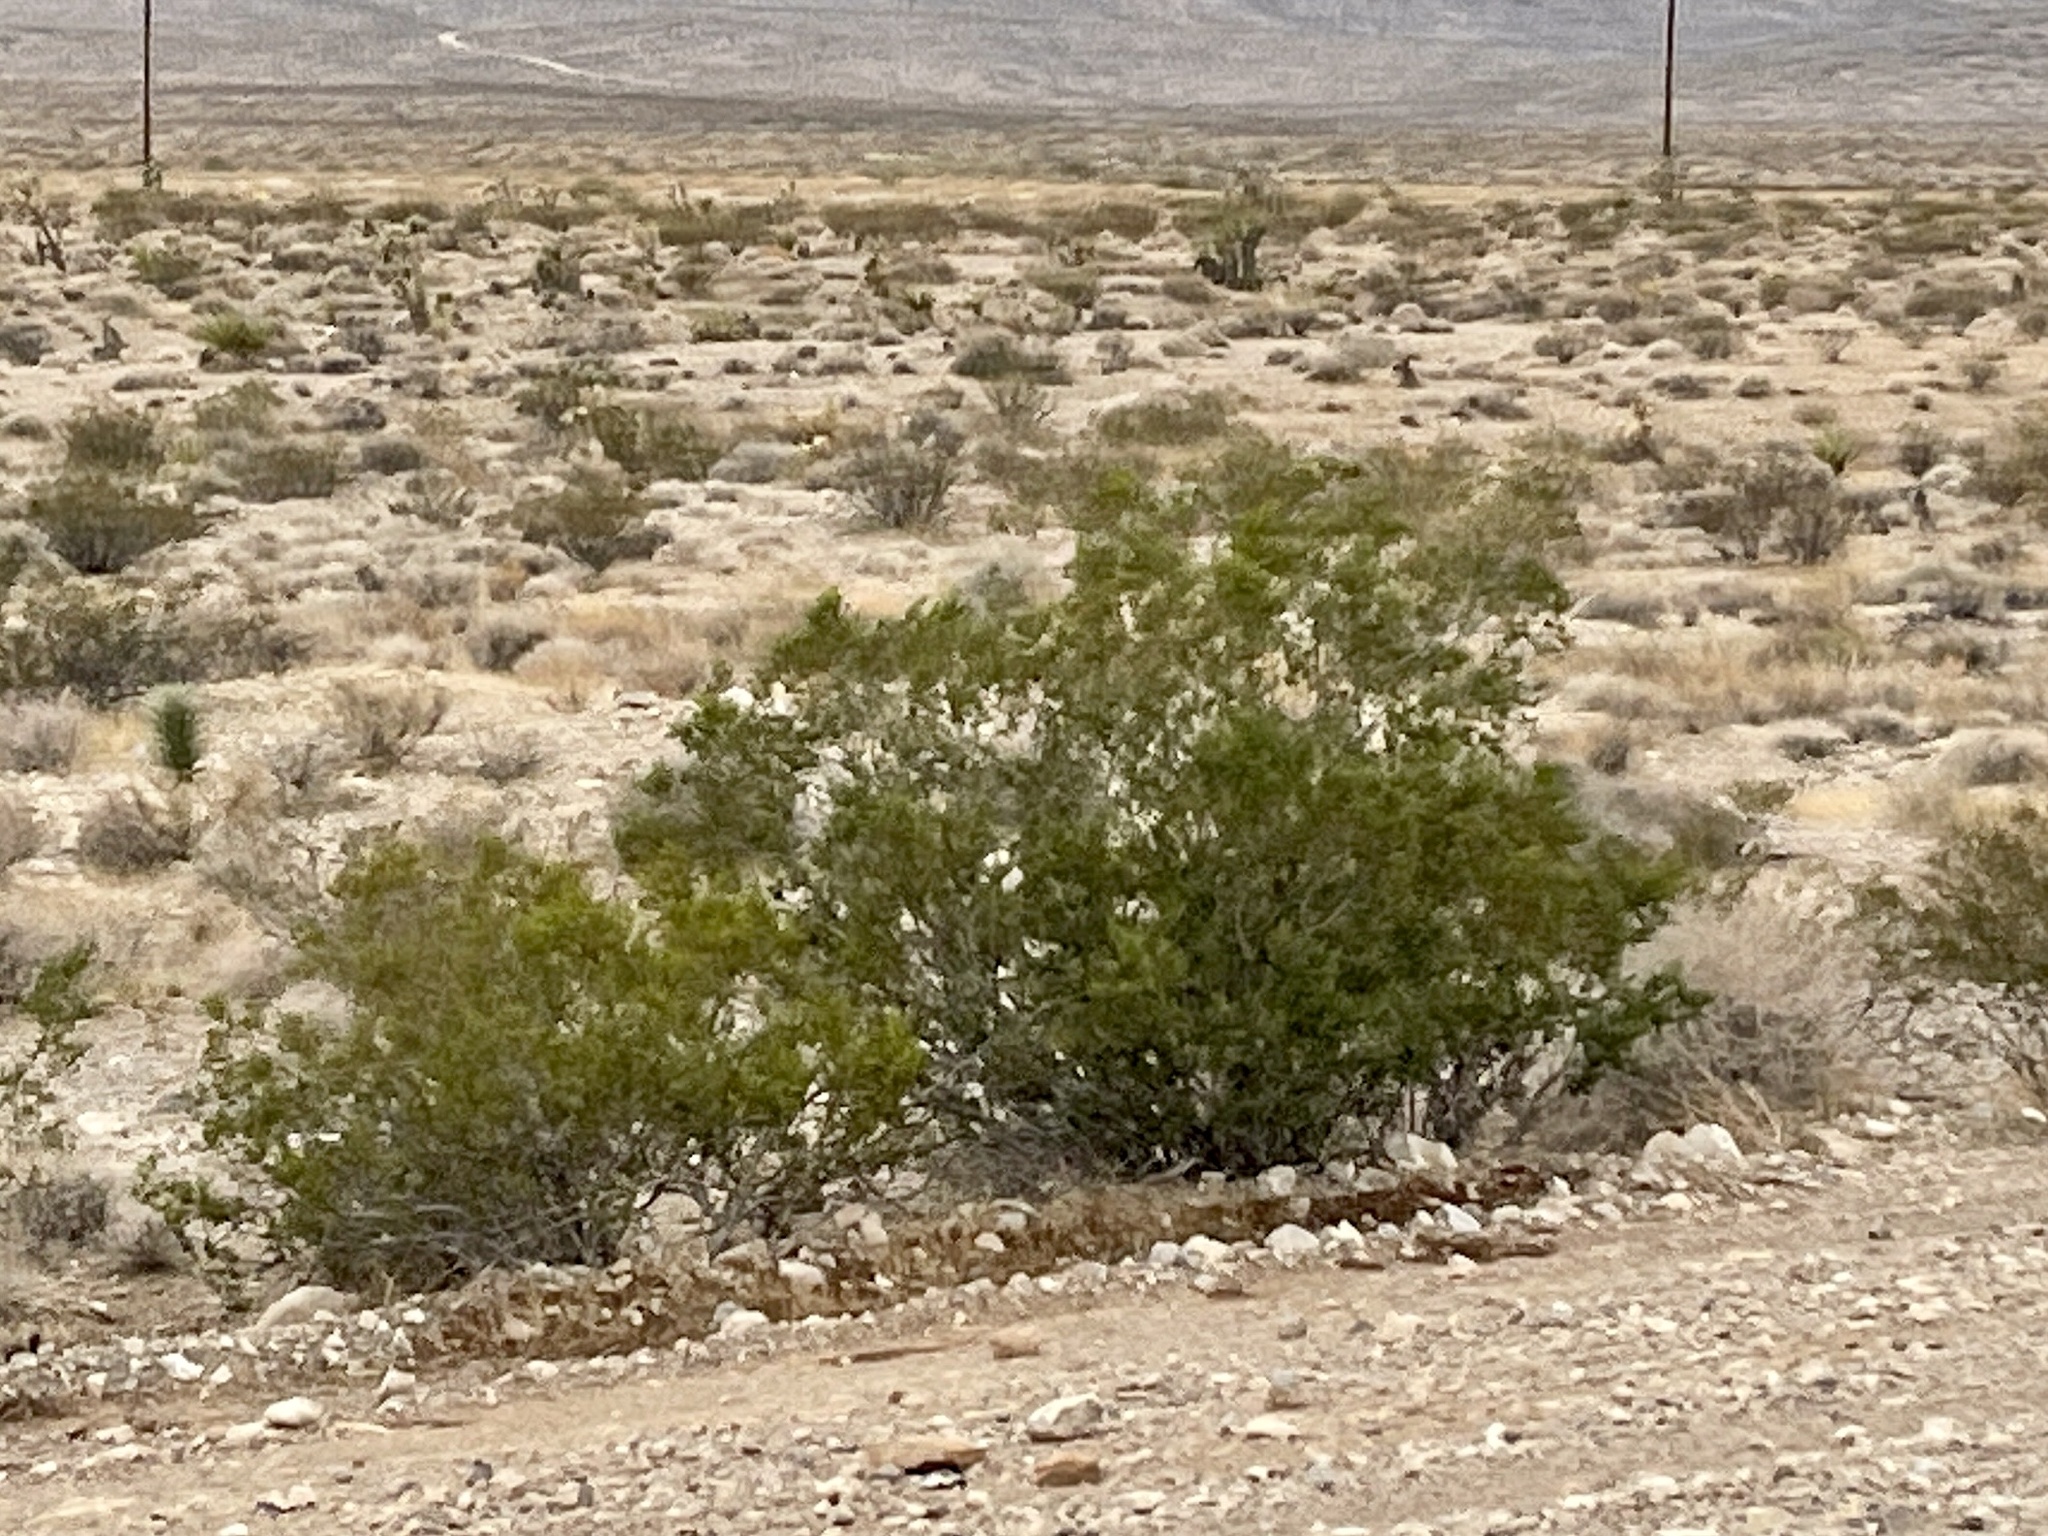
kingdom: Plantae
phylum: Tracheophyta
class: Magnoliopsida
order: Zygophyllales
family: Zygophyllaceae
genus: Larrea
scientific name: Larrea tridentata
